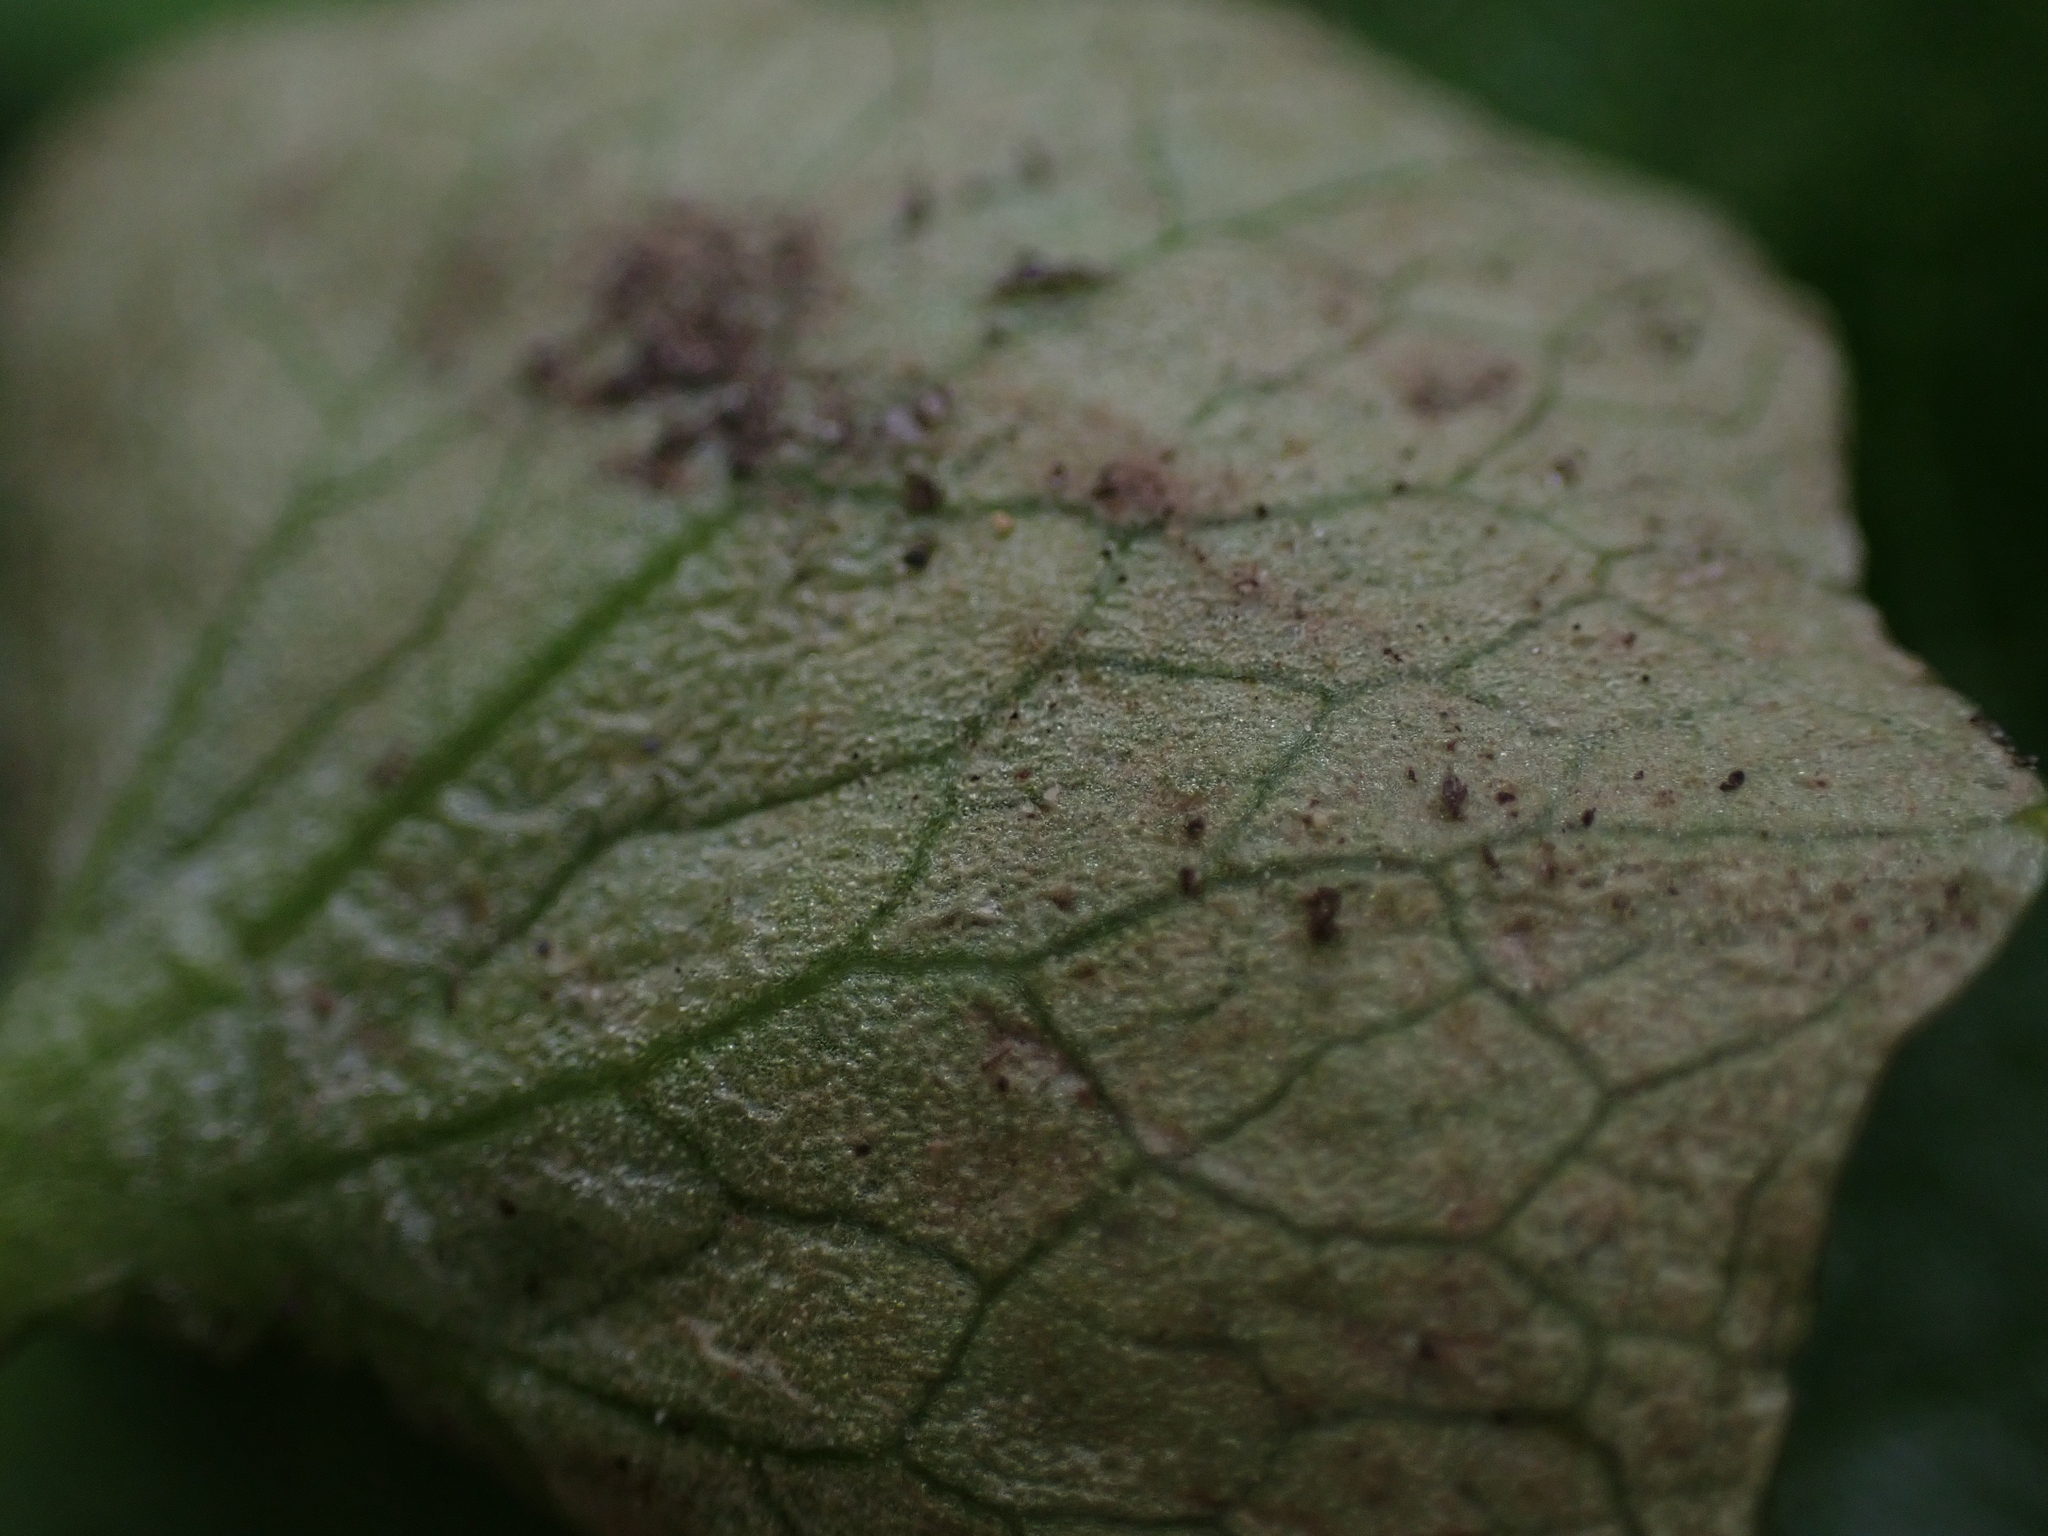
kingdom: Chromista
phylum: Oomycota
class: Peronosporea
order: Peronosporales
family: Peronosporaceae
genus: Peronospora
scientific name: Peronospora ficariae
